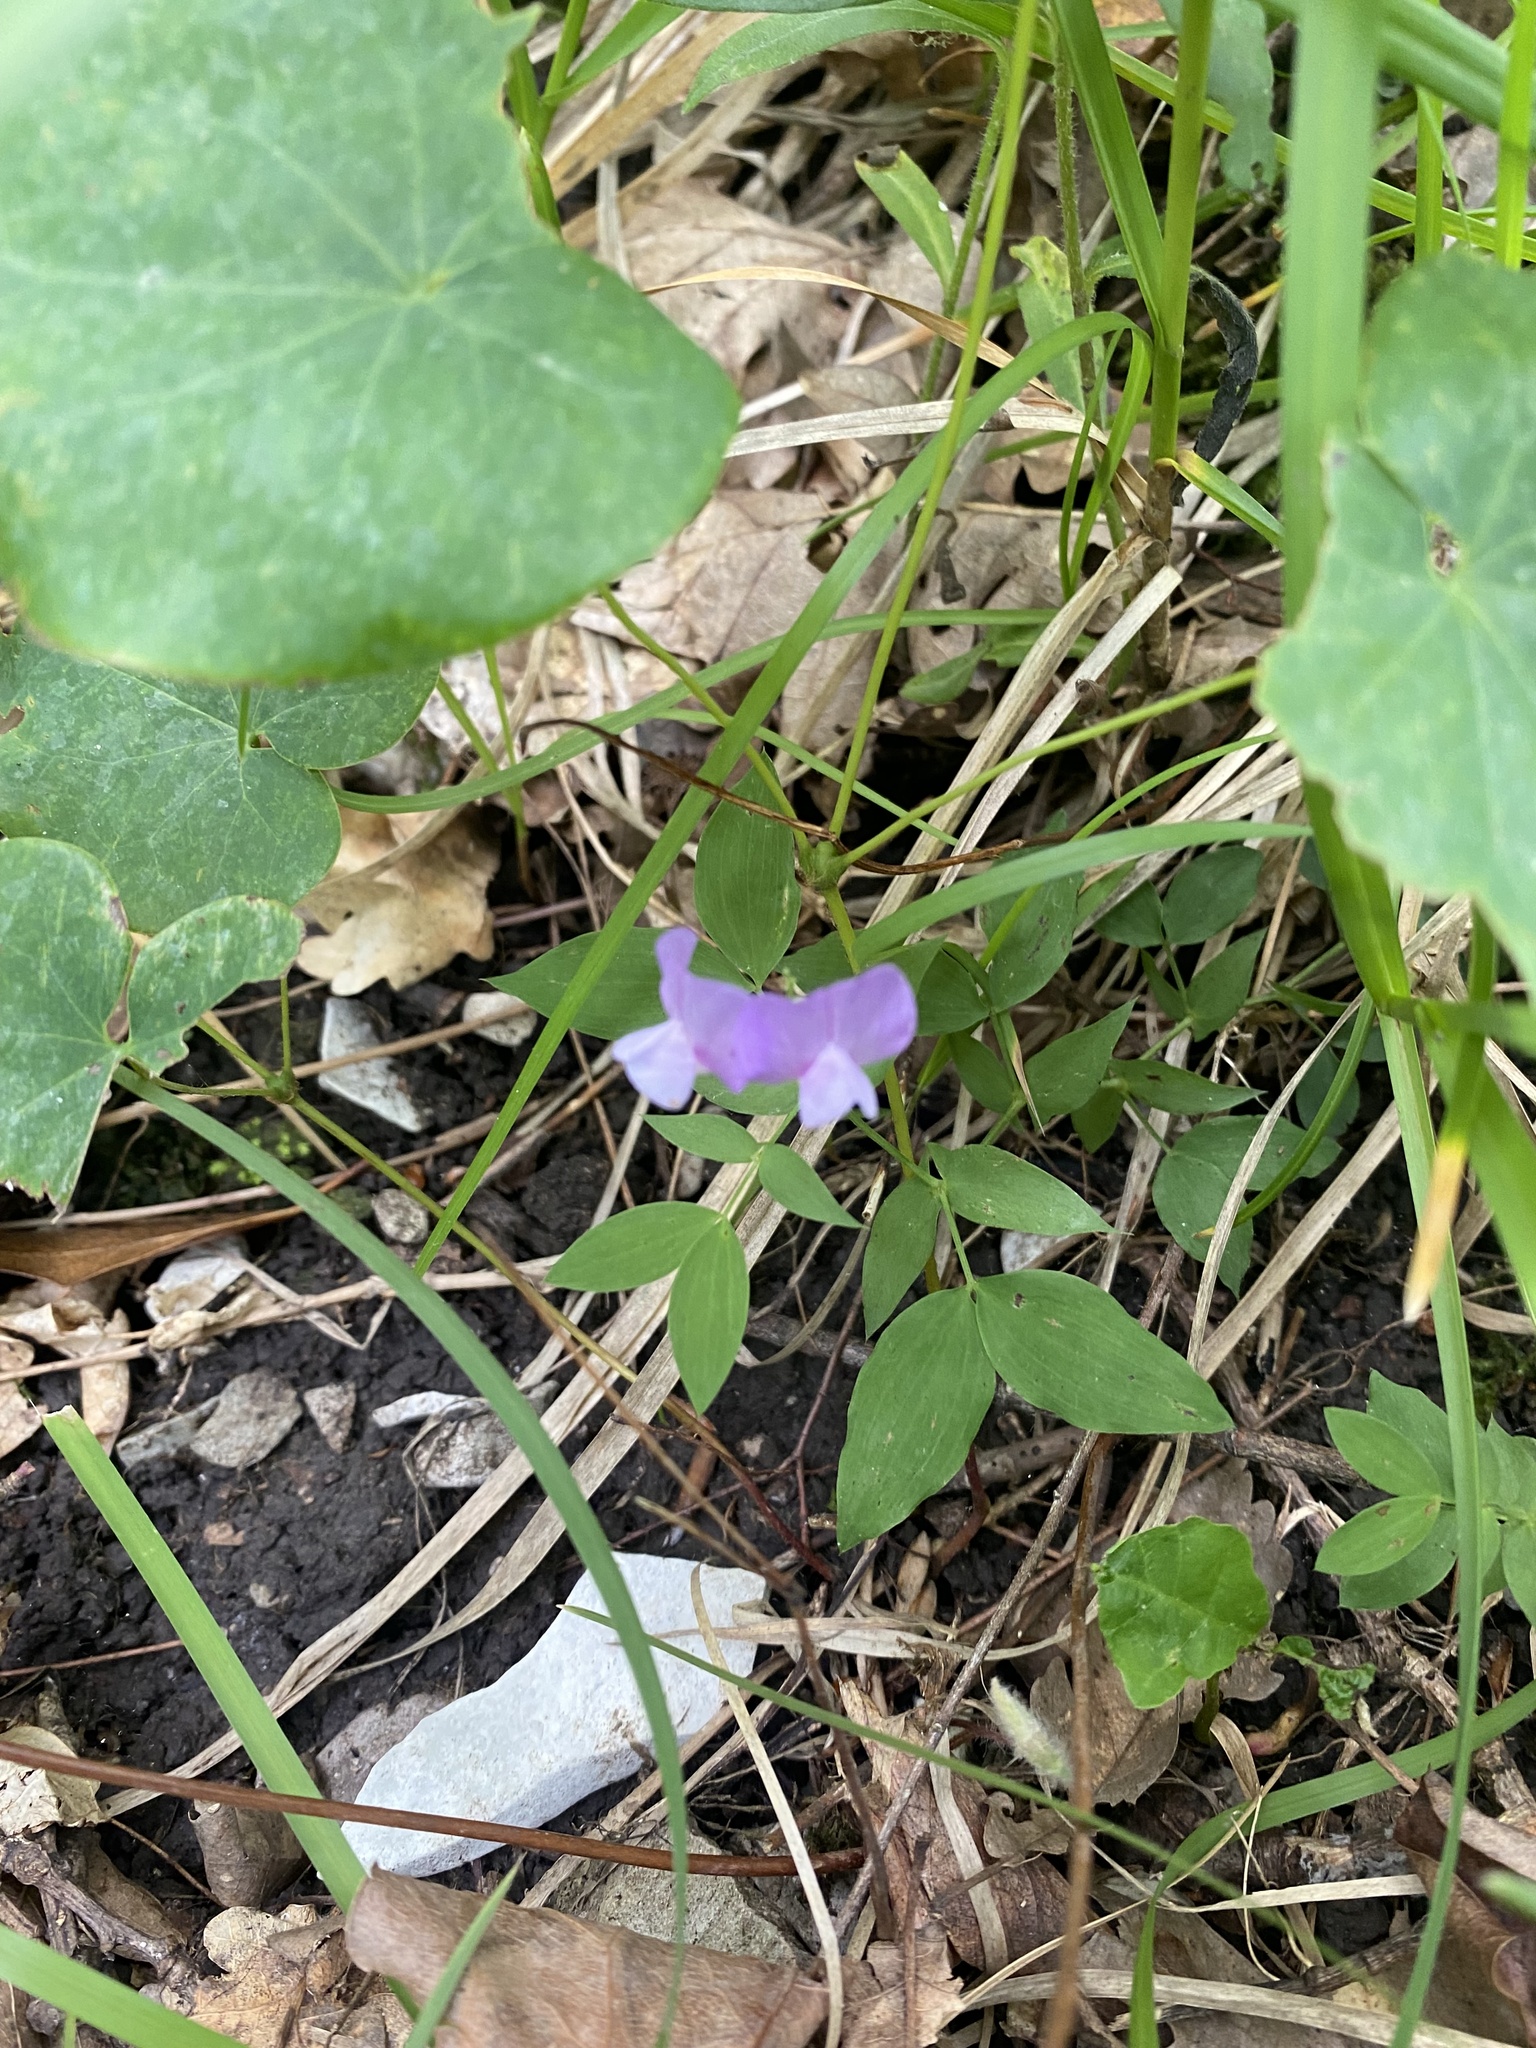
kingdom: Plantae
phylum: Tracheophyta
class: Magnoliopsida
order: Fabales
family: Fabaceae
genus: Lathyrus
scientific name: Lathyrus laxiflorus
